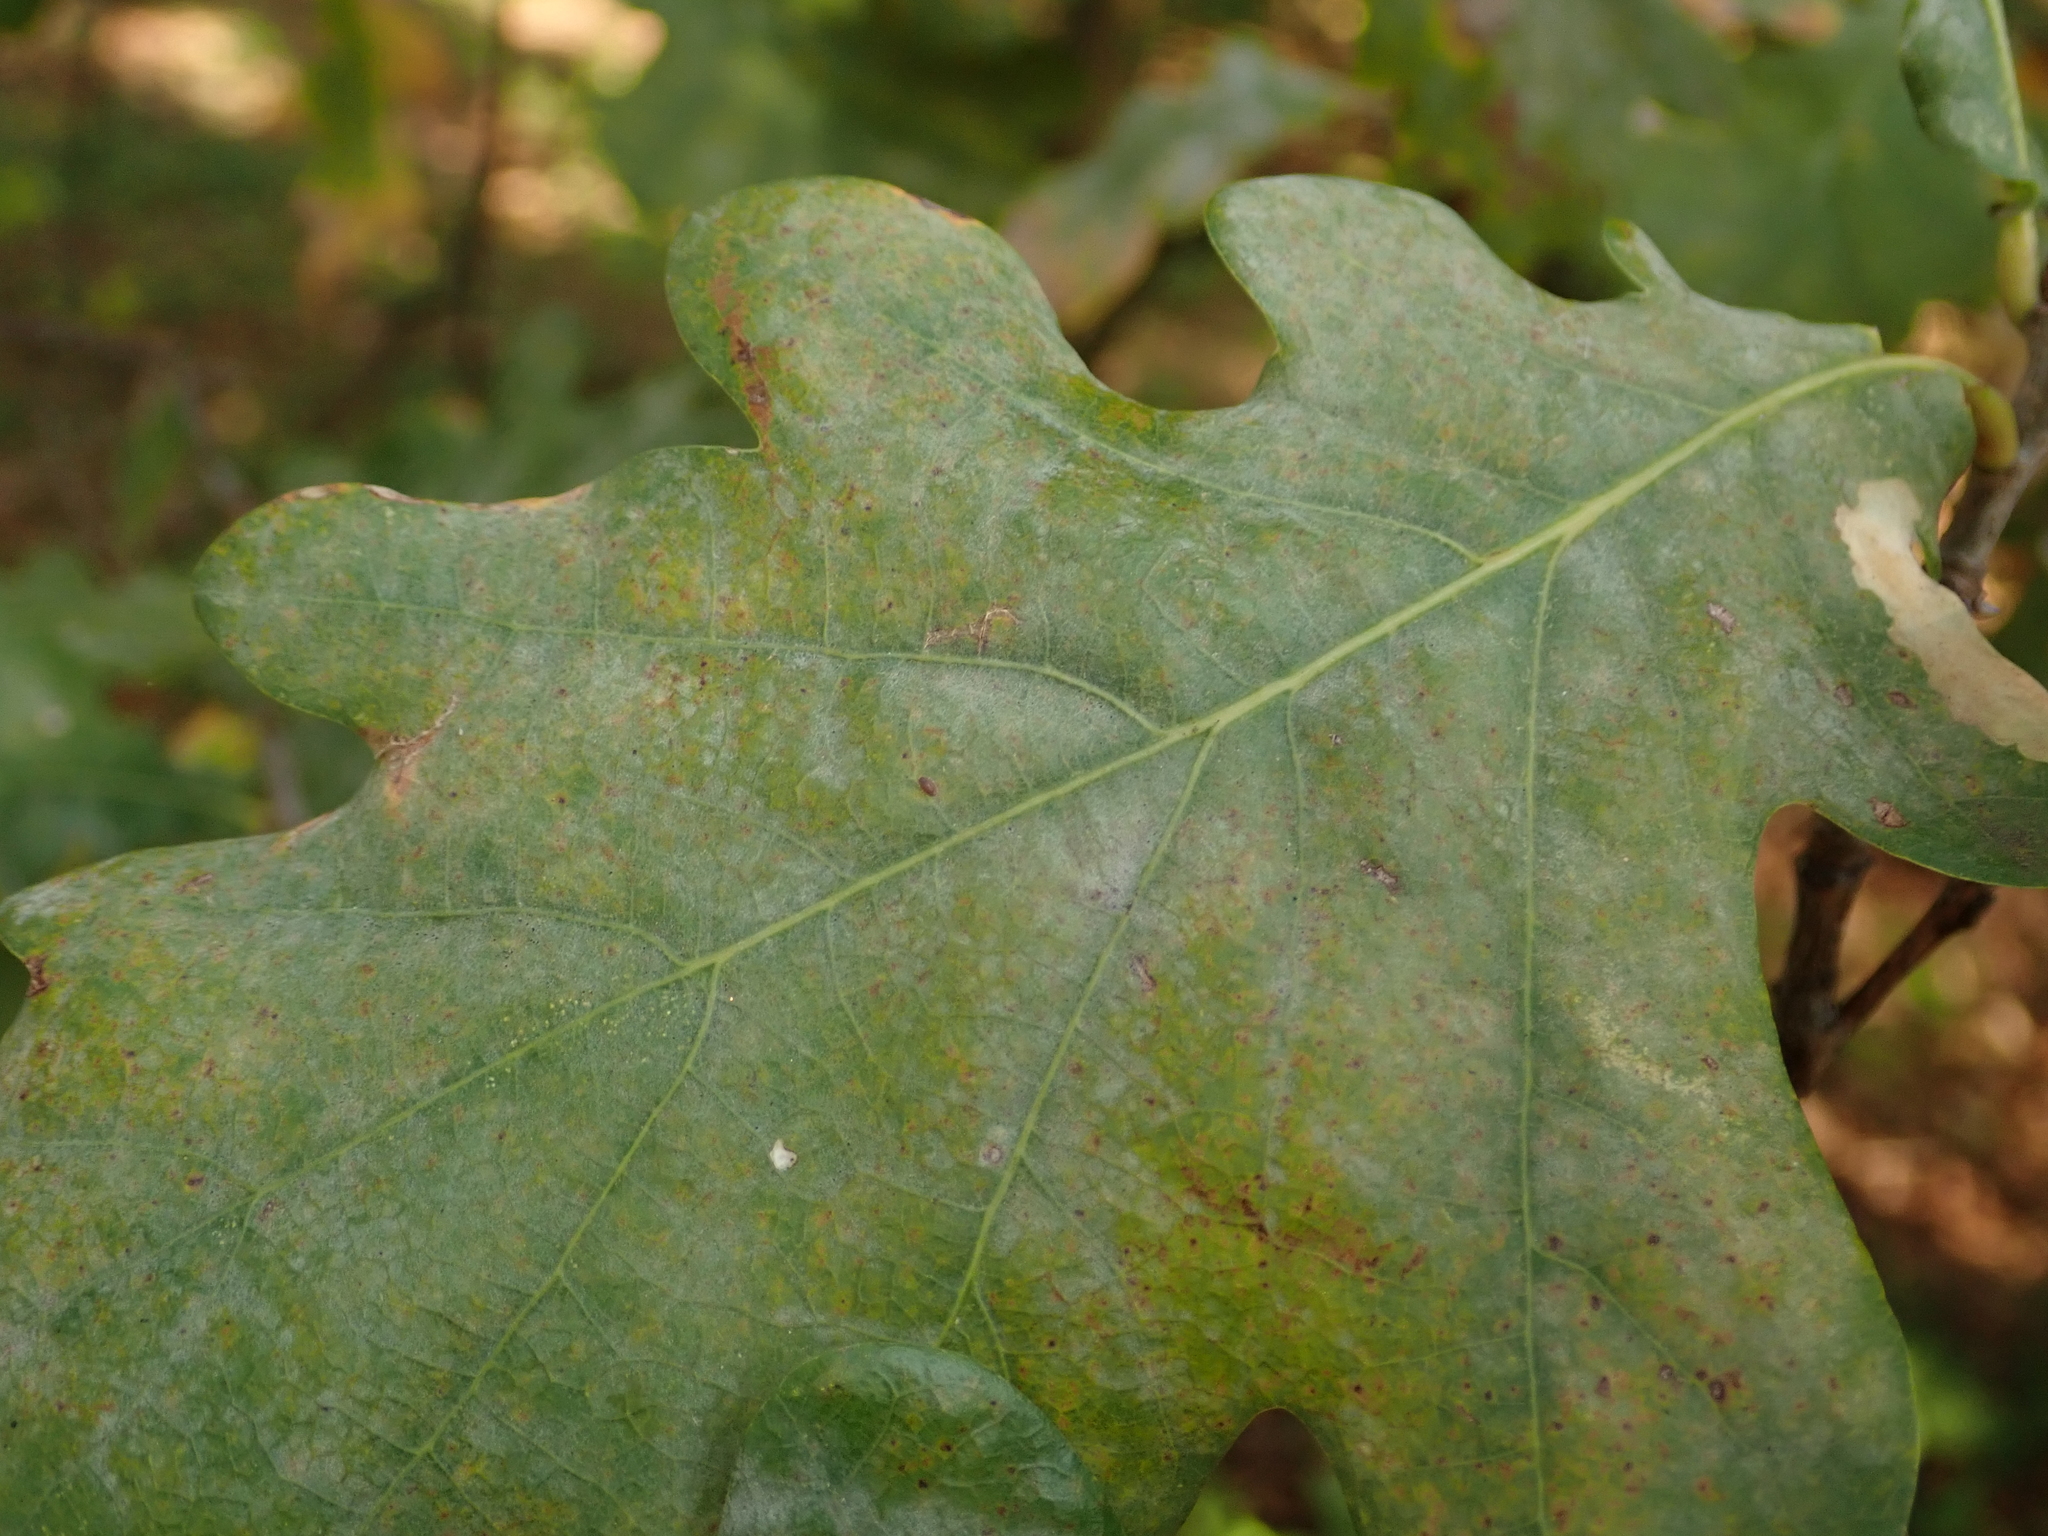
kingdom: Fungi
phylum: Ascomycota
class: Leotiomycetes
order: Helotiales
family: Erysiphaceae
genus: Erysiphe
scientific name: Erysiphe
